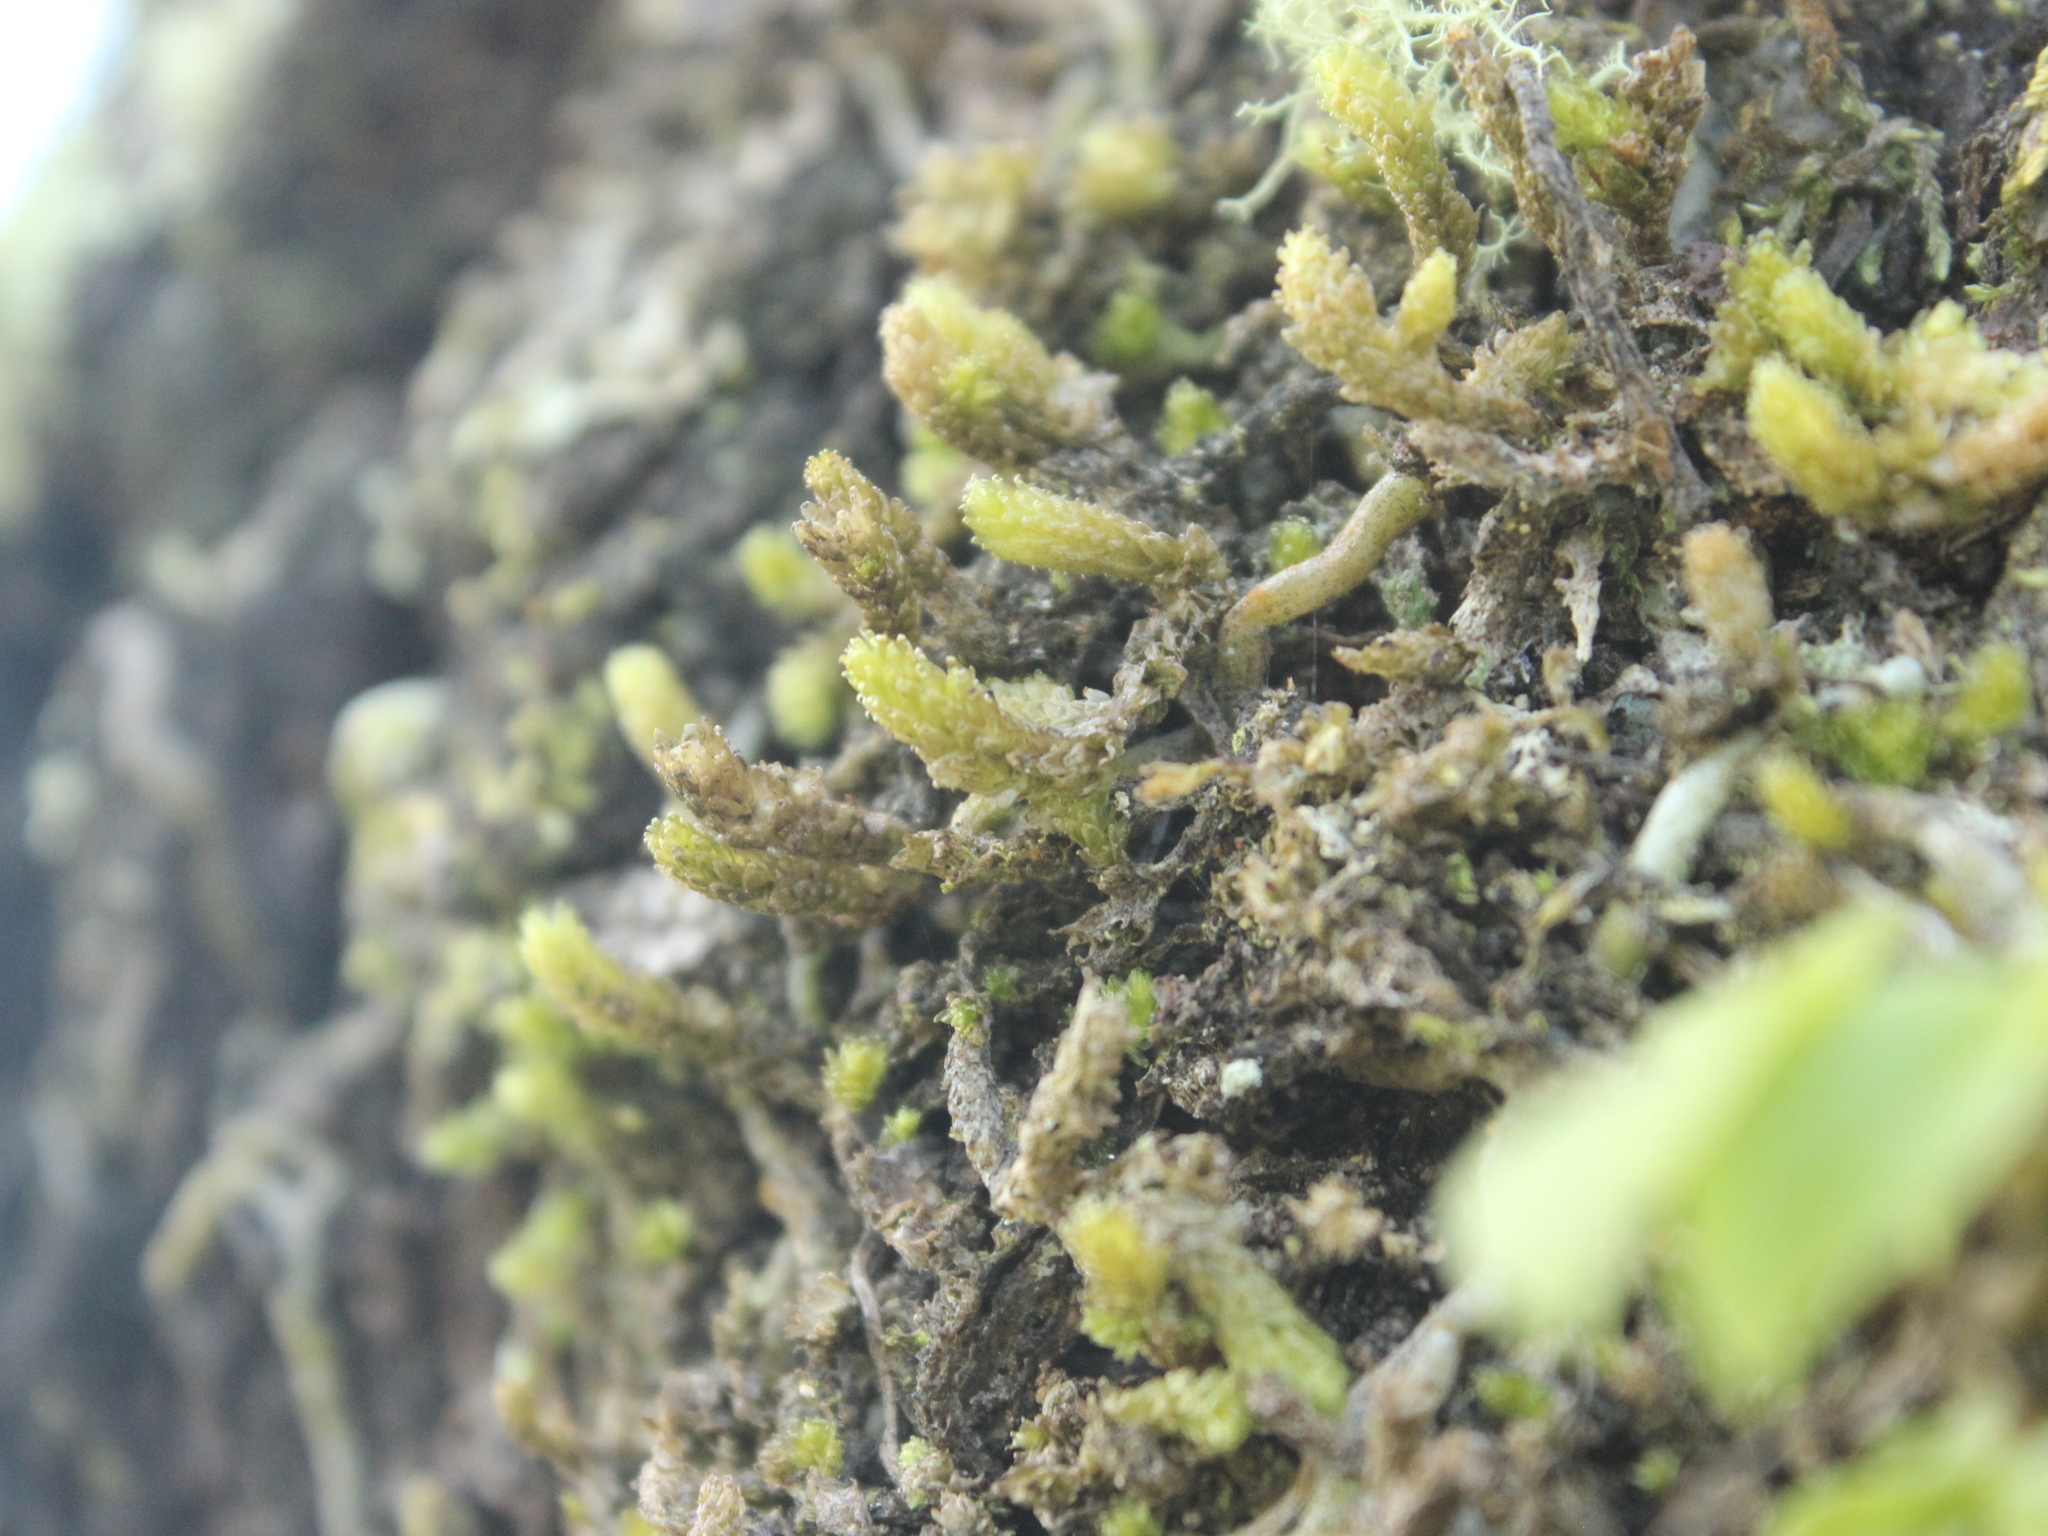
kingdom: Plantae
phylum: Bryophyta
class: Bryopsida
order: Ptychomniales
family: Ptychomniaceae
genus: Cladomnion
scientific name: Cladomnion ericoides
